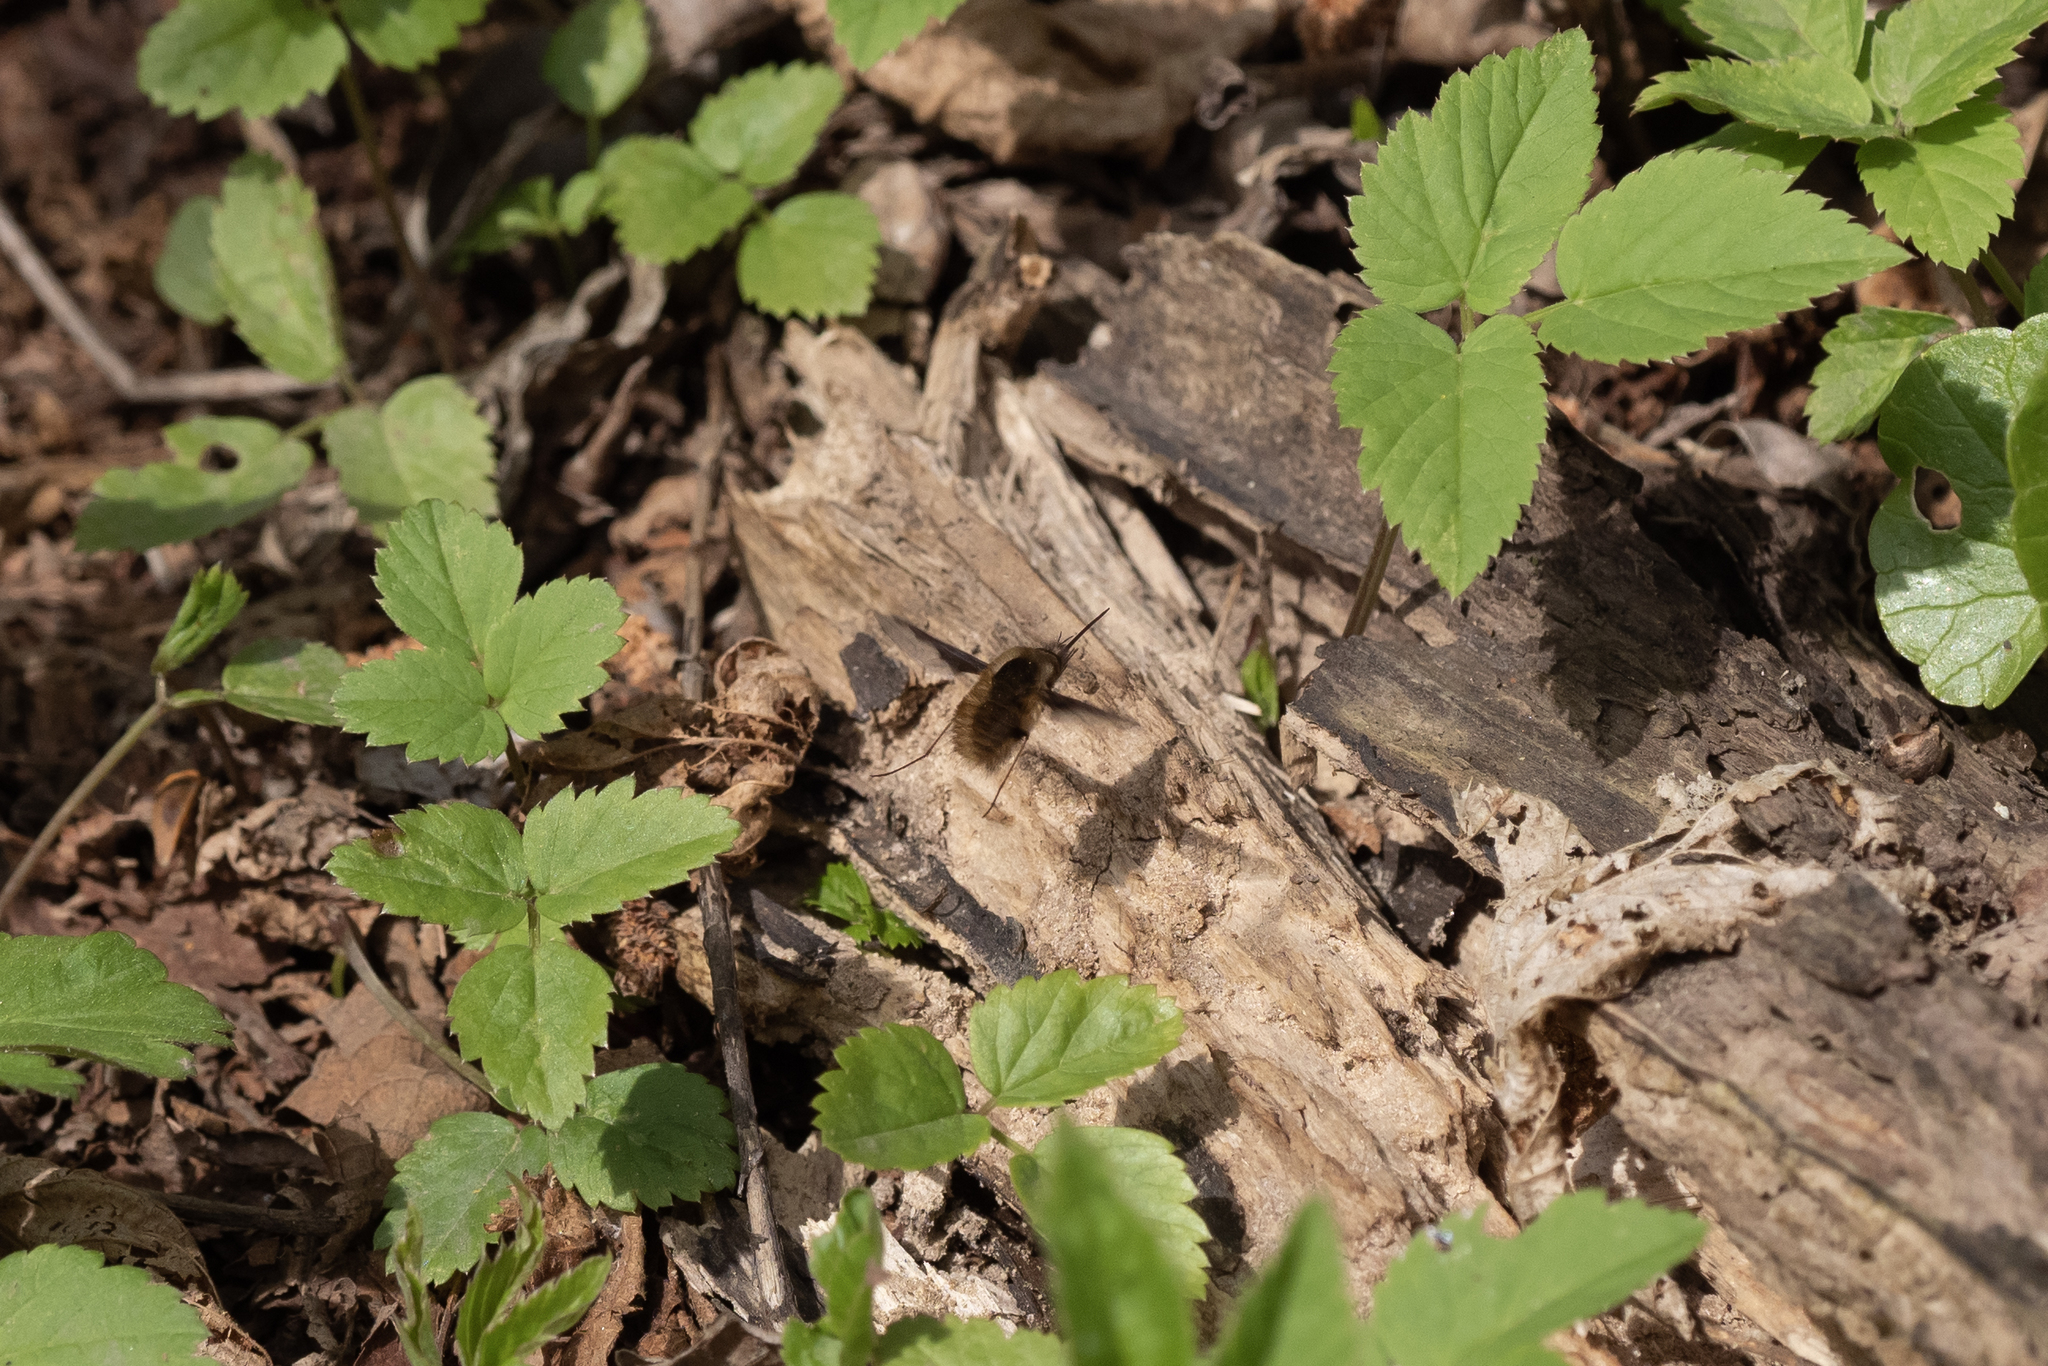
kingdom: Animalia
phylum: Arthropoda
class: Insecta
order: Diptera
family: Bombyliidae
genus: Bombylius
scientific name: Bombylius major
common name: Bee fly
